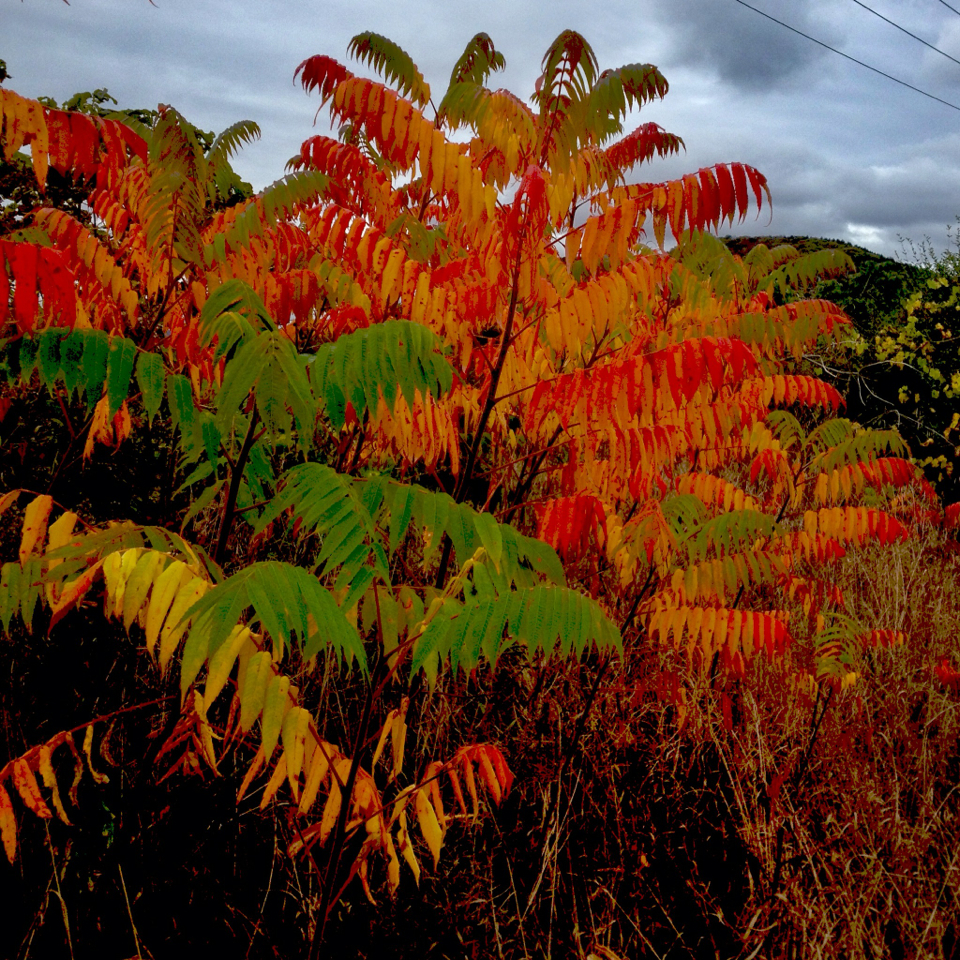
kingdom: Plantae
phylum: Tracheophyta
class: Magnoliopsida
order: Sapindales
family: Anacardiaceae
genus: Rhus
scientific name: Rhus typhina
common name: Staghorn sumac
